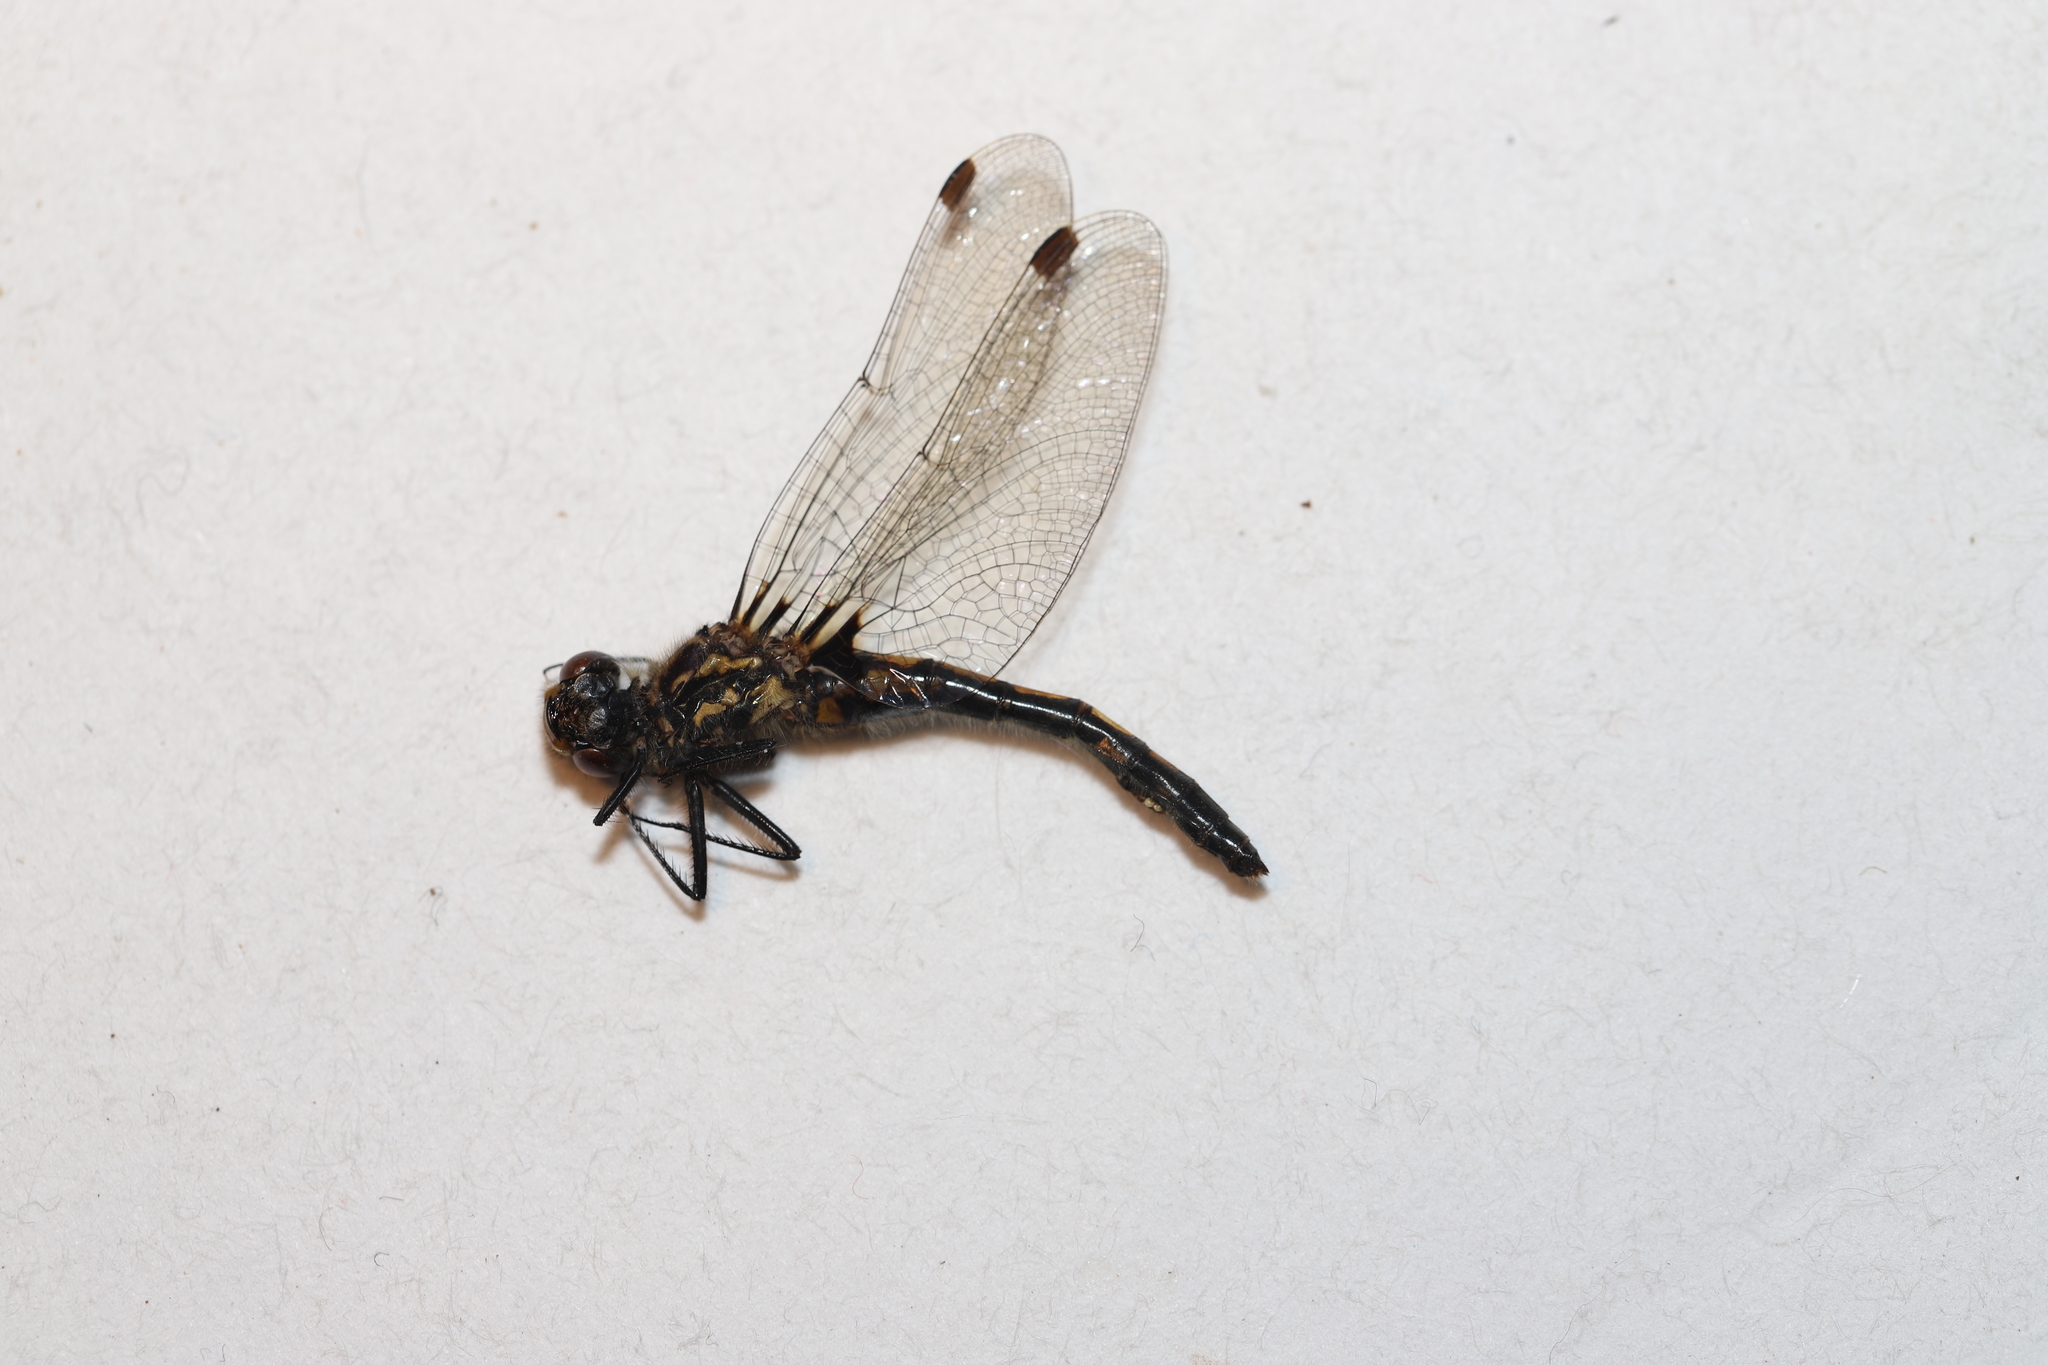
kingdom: Animalia
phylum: Arthropoda
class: Insecta
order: Odonata
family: Libellulidae
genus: Leucorrhinia
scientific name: Leucorrhinia hudsonica
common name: Hudsonian whiteface
